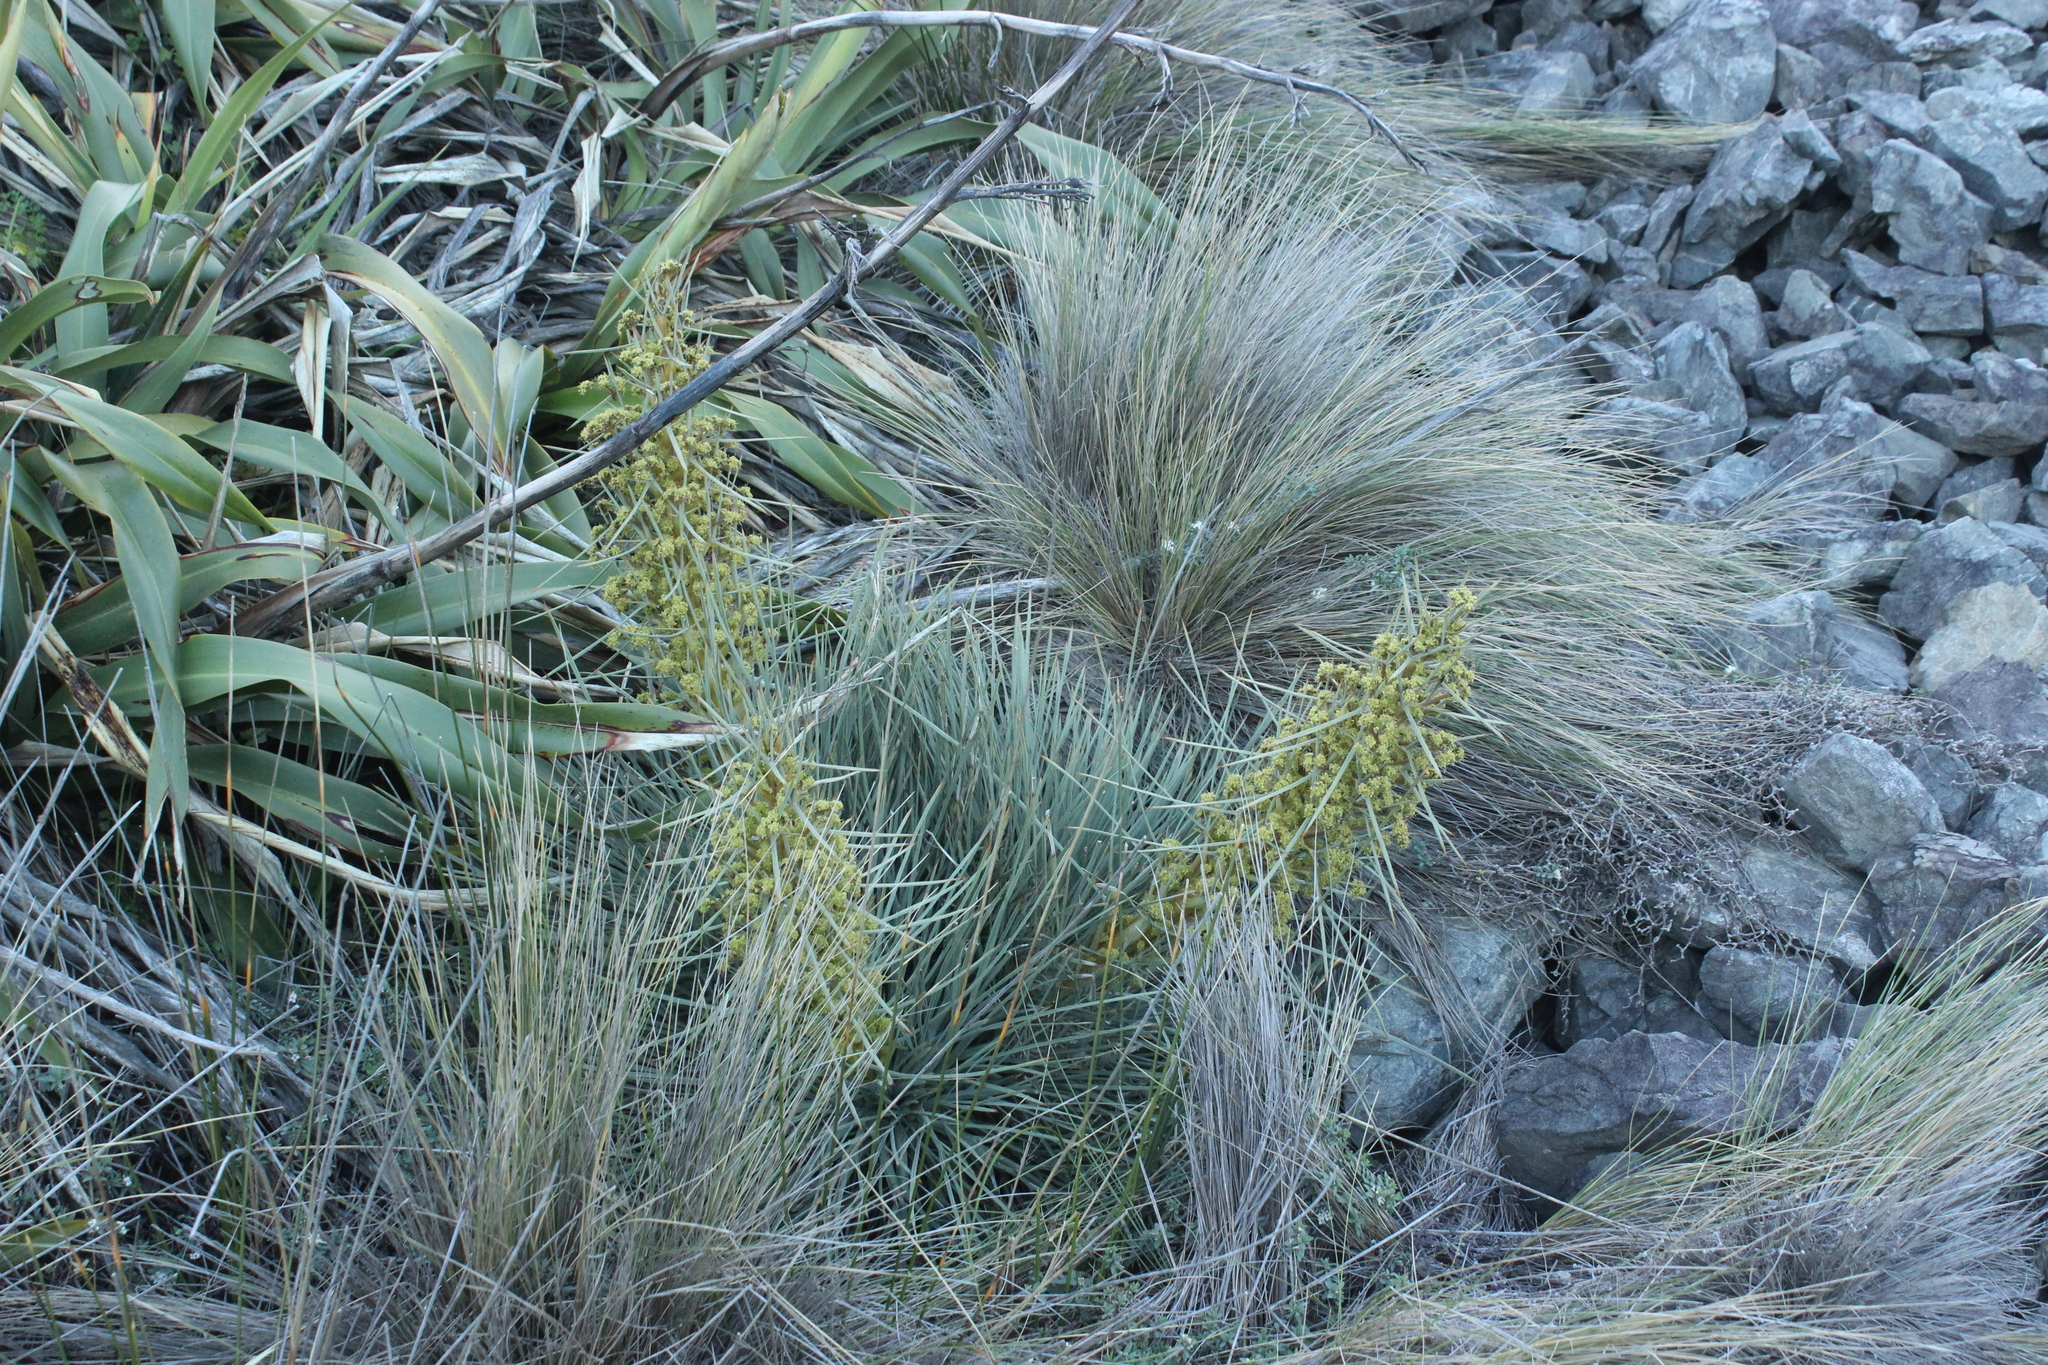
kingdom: Plantae
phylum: Tracheophyta
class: Magnoliopsida
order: Apiales
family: Apiaceae
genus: Aciphylla
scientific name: Aciphylla squarrosa
